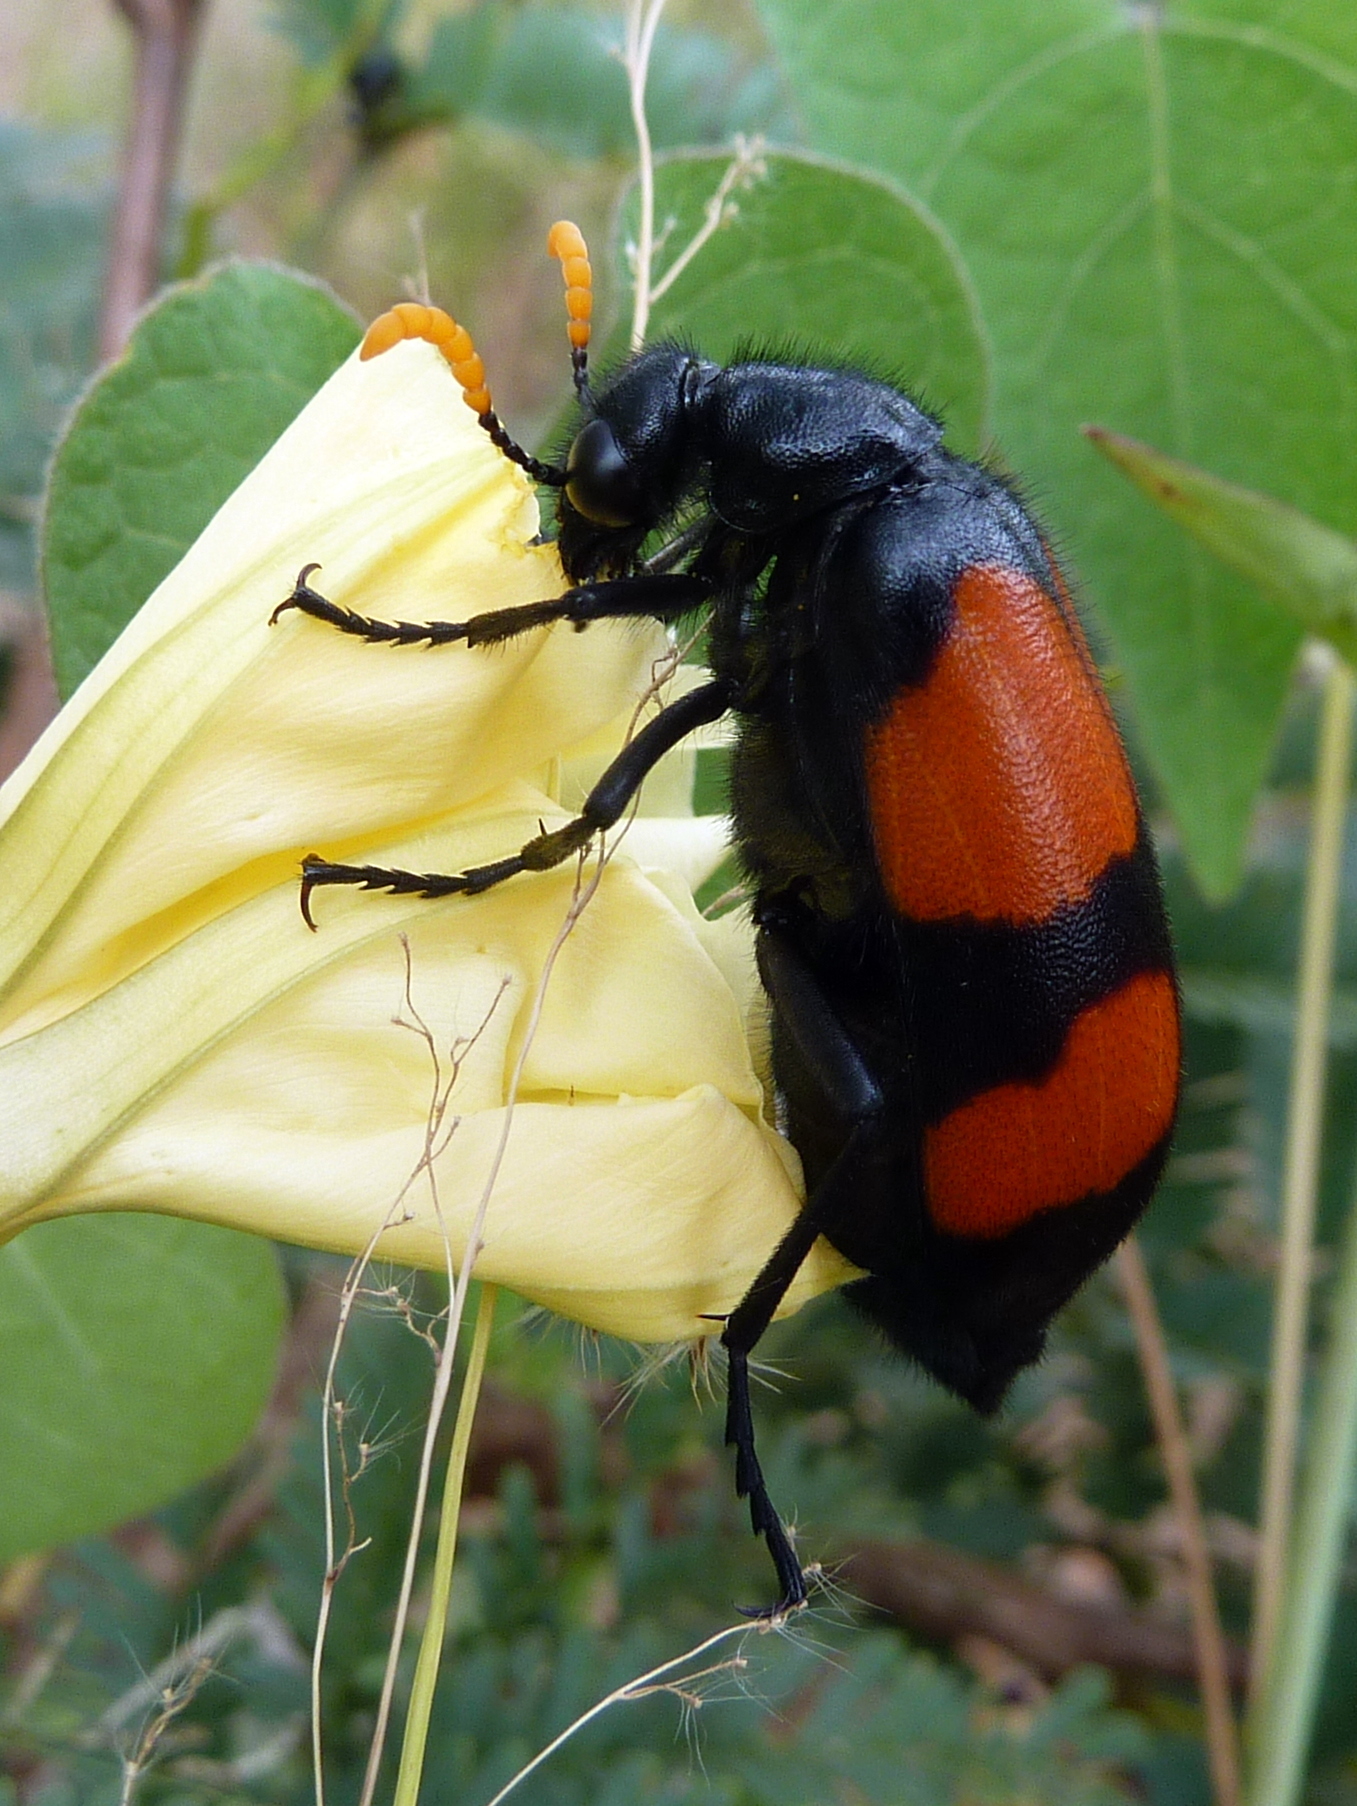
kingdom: Animalia
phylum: Arthropoda
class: Insecta
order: Coleoptera
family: Meloidae
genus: Hycleus
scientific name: Hycleus tekkensis
